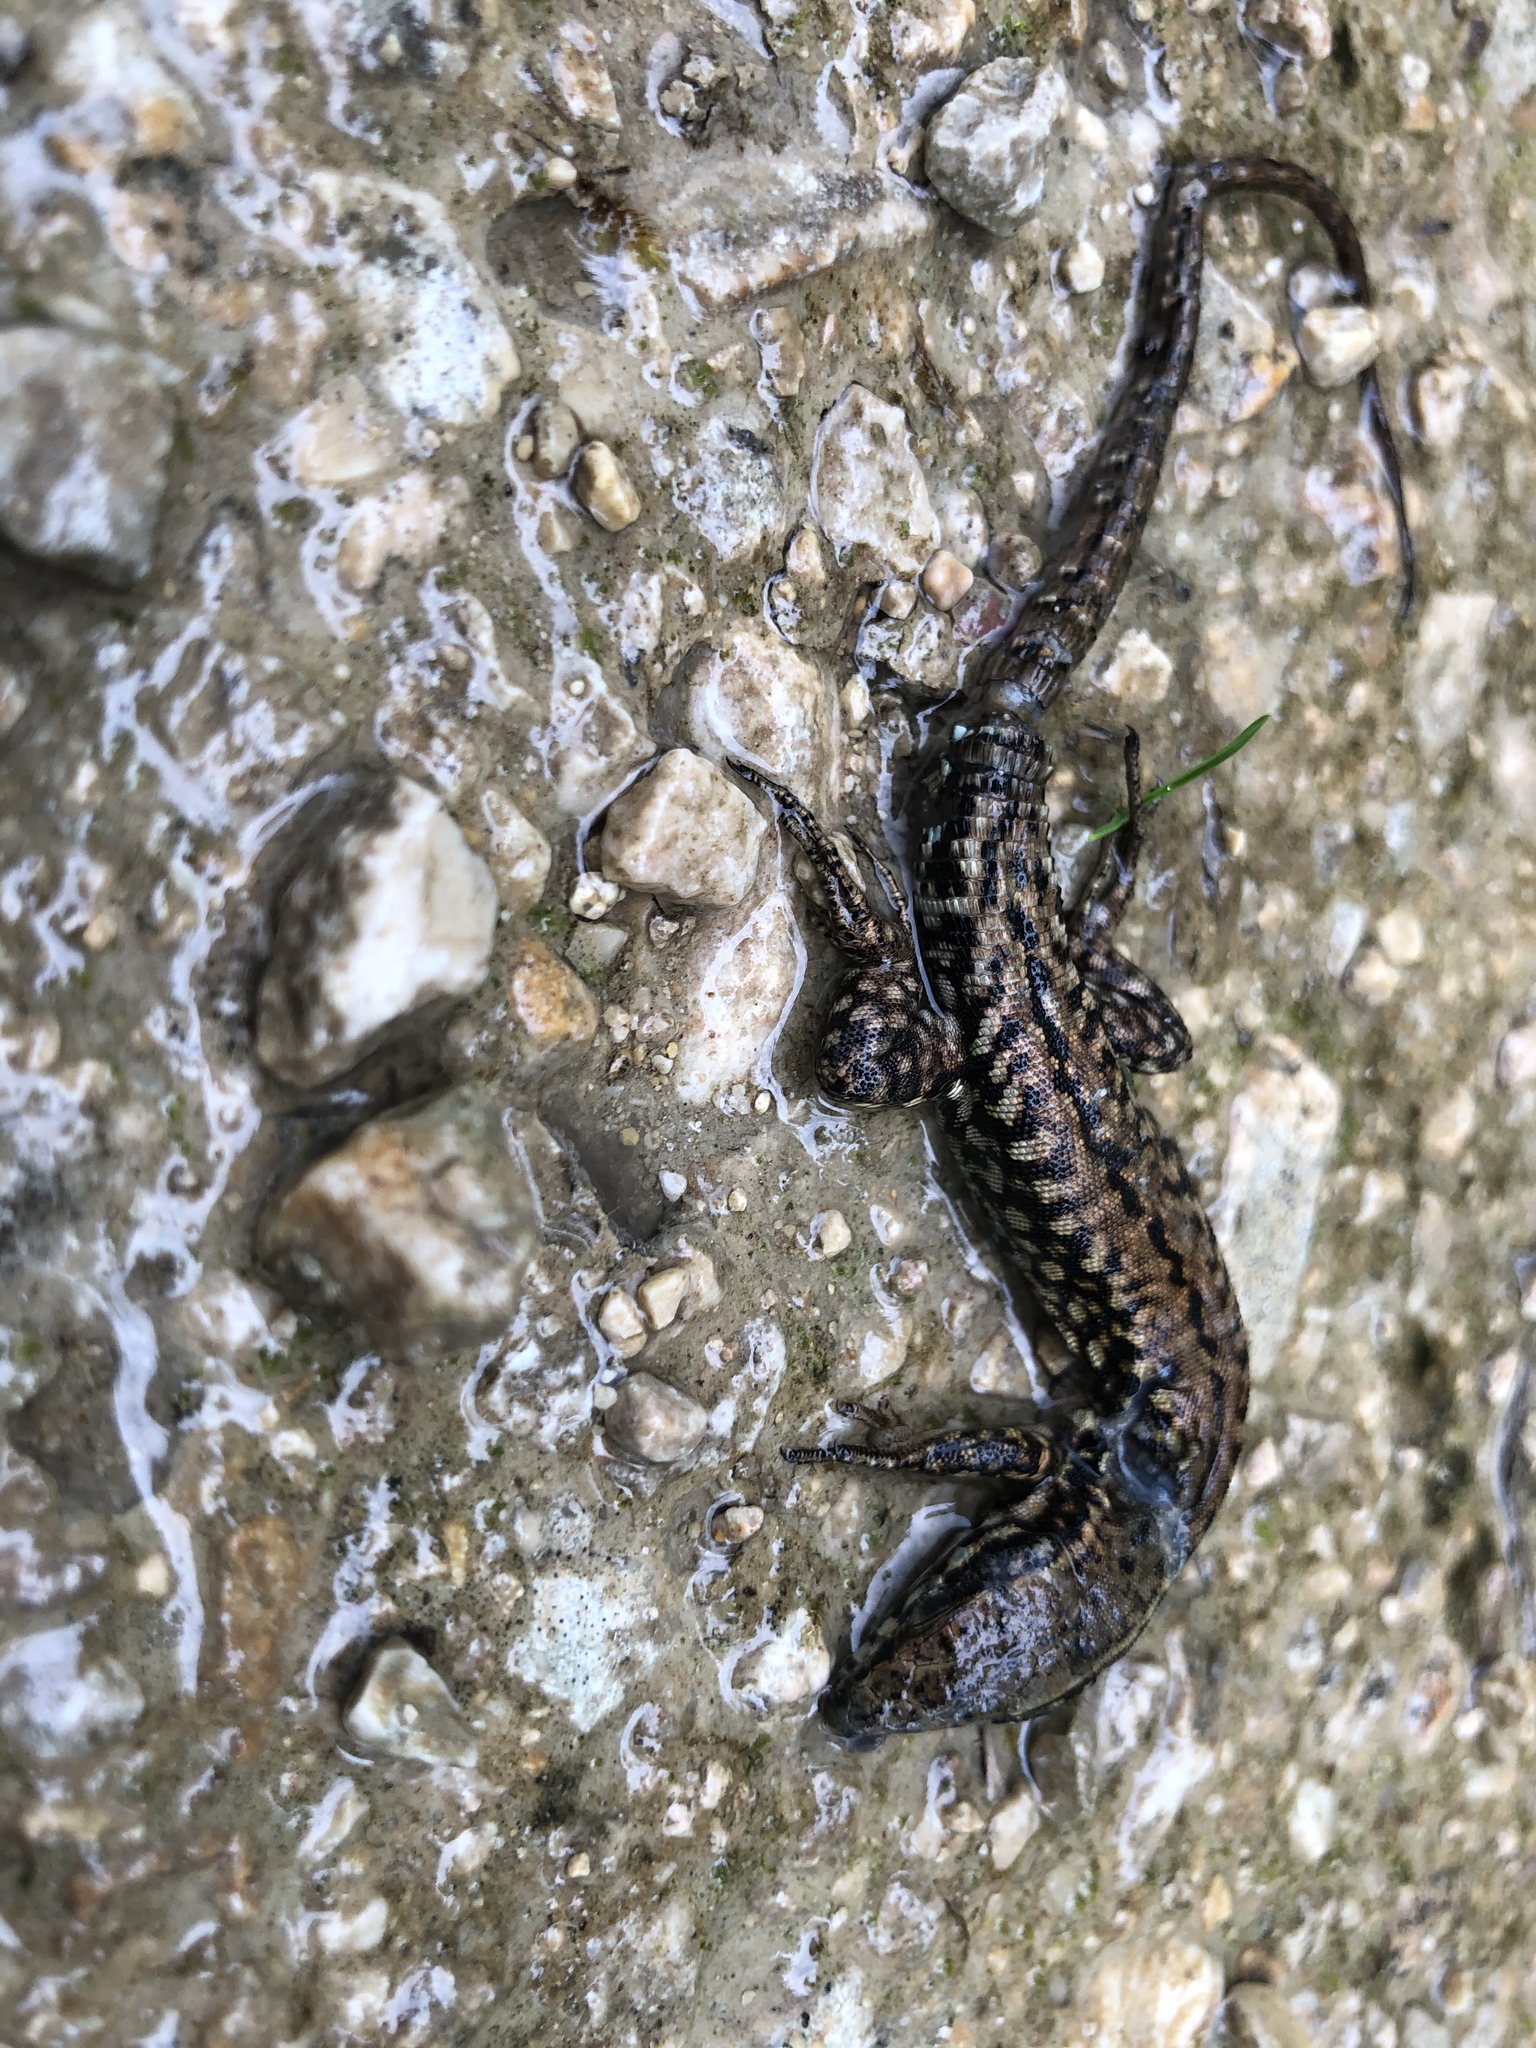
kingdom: Animalia
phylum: Chordata
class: Squamata
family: Lacertidae
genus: Podarcis
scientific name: Podarcis muralis
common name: Common wall lizard
